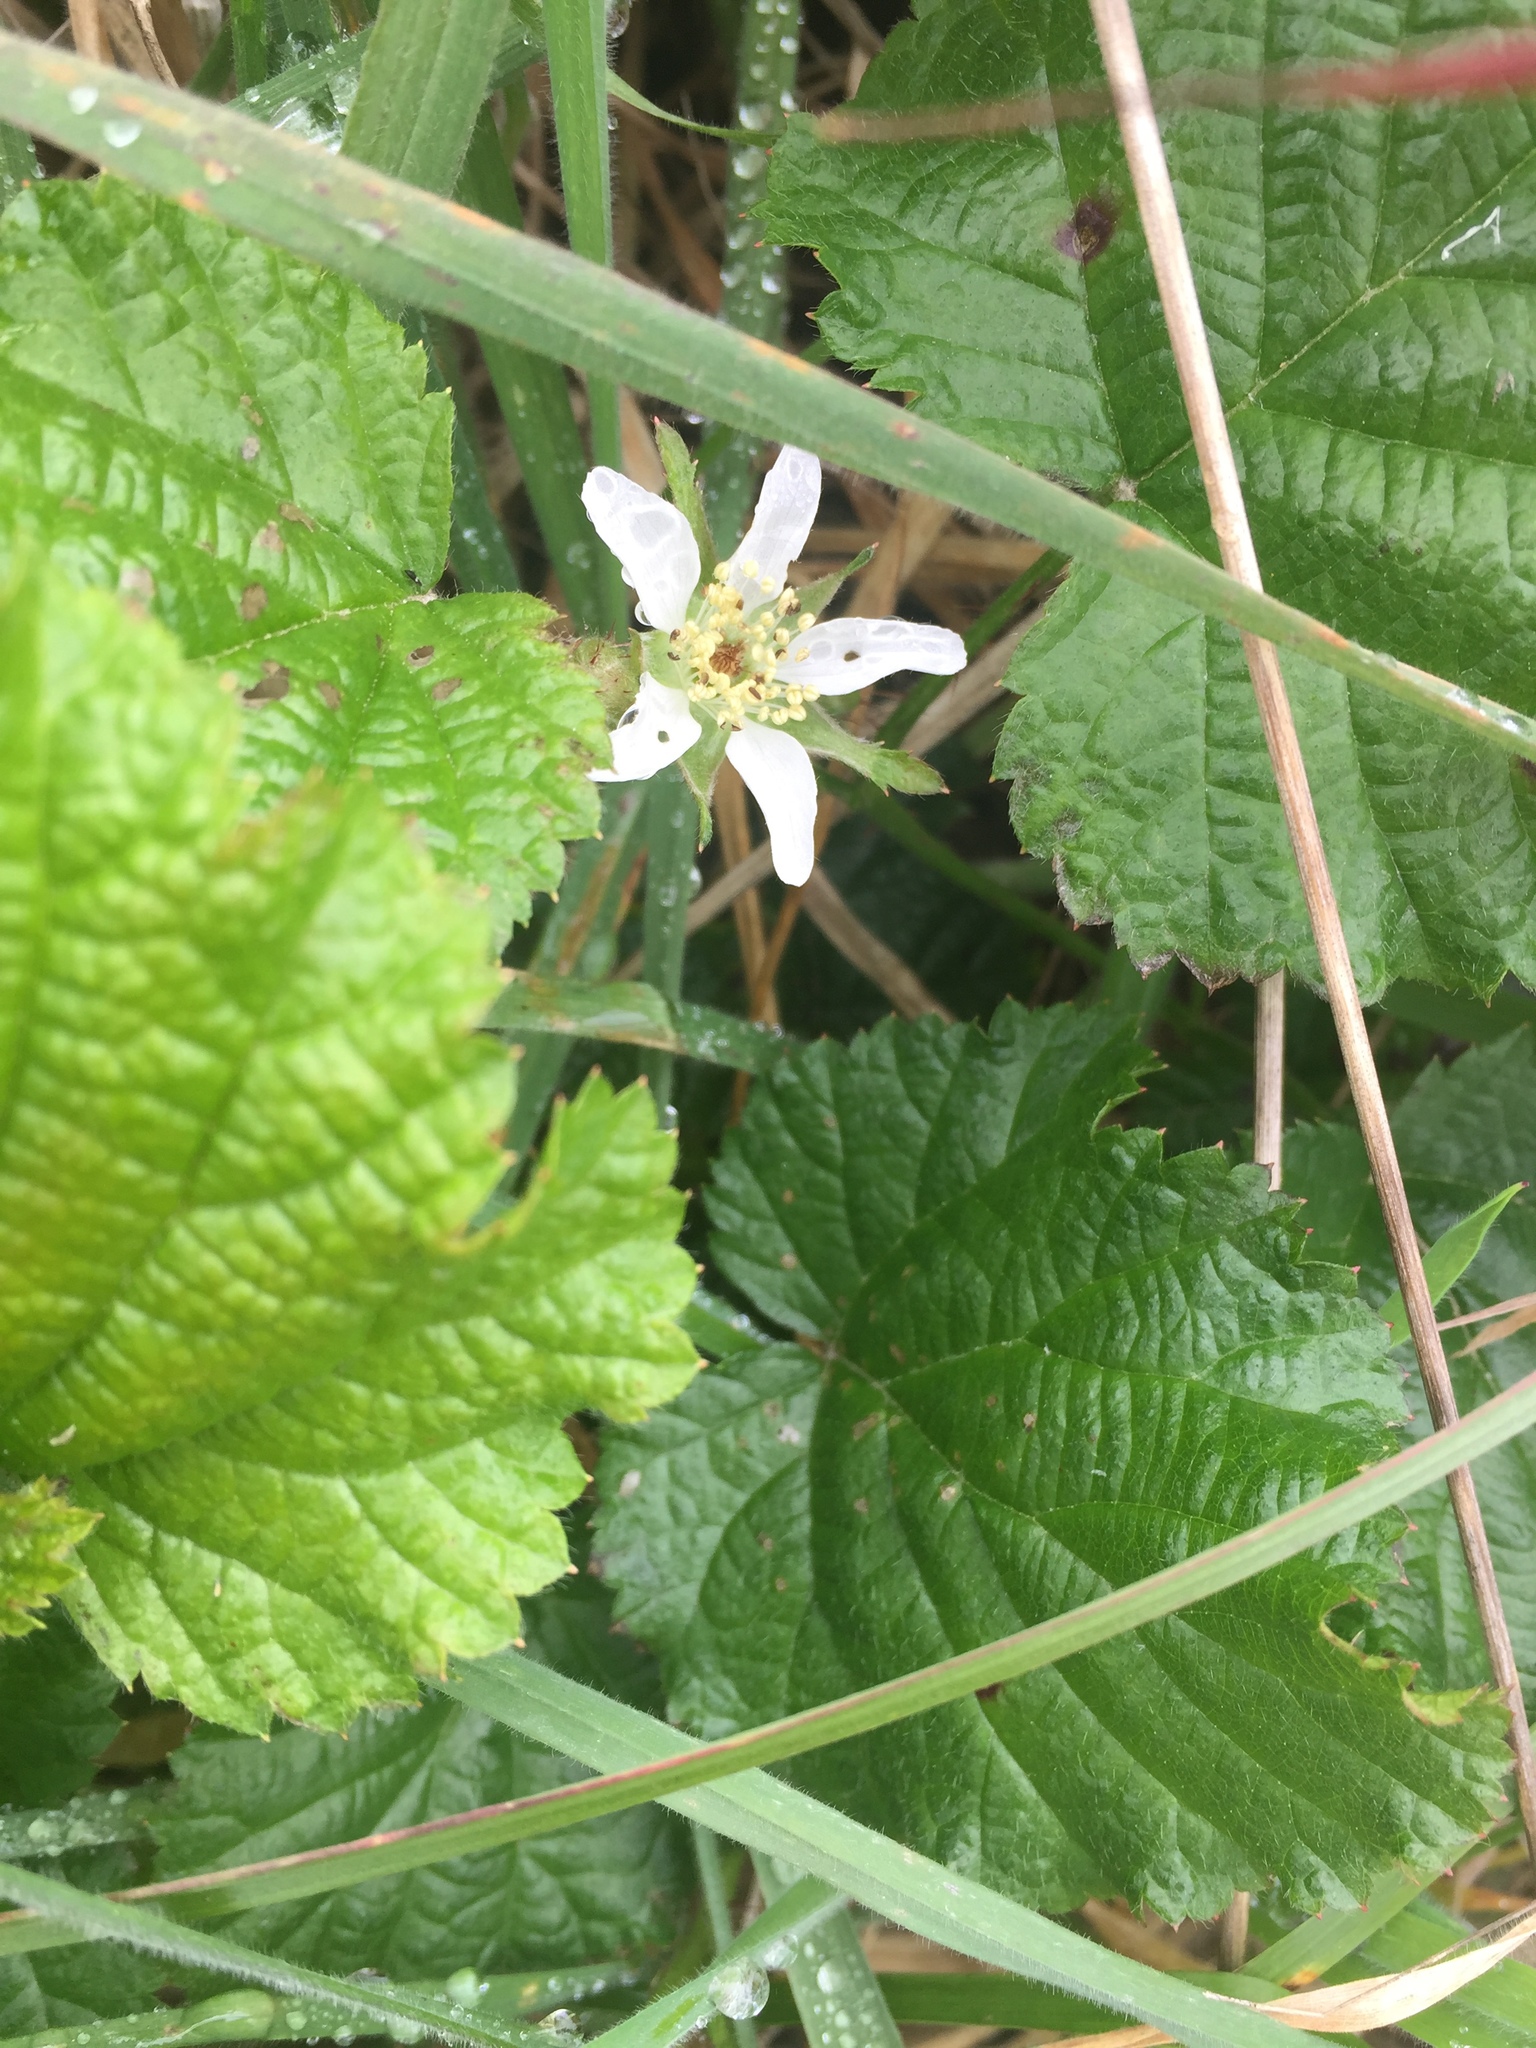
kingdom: Plantae
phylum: Tracheophyta
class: Magnoliopsida
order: Rosales
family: Rosaceae
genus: Rubus
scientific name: Rubus ursinus
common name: Pacific blackberry
